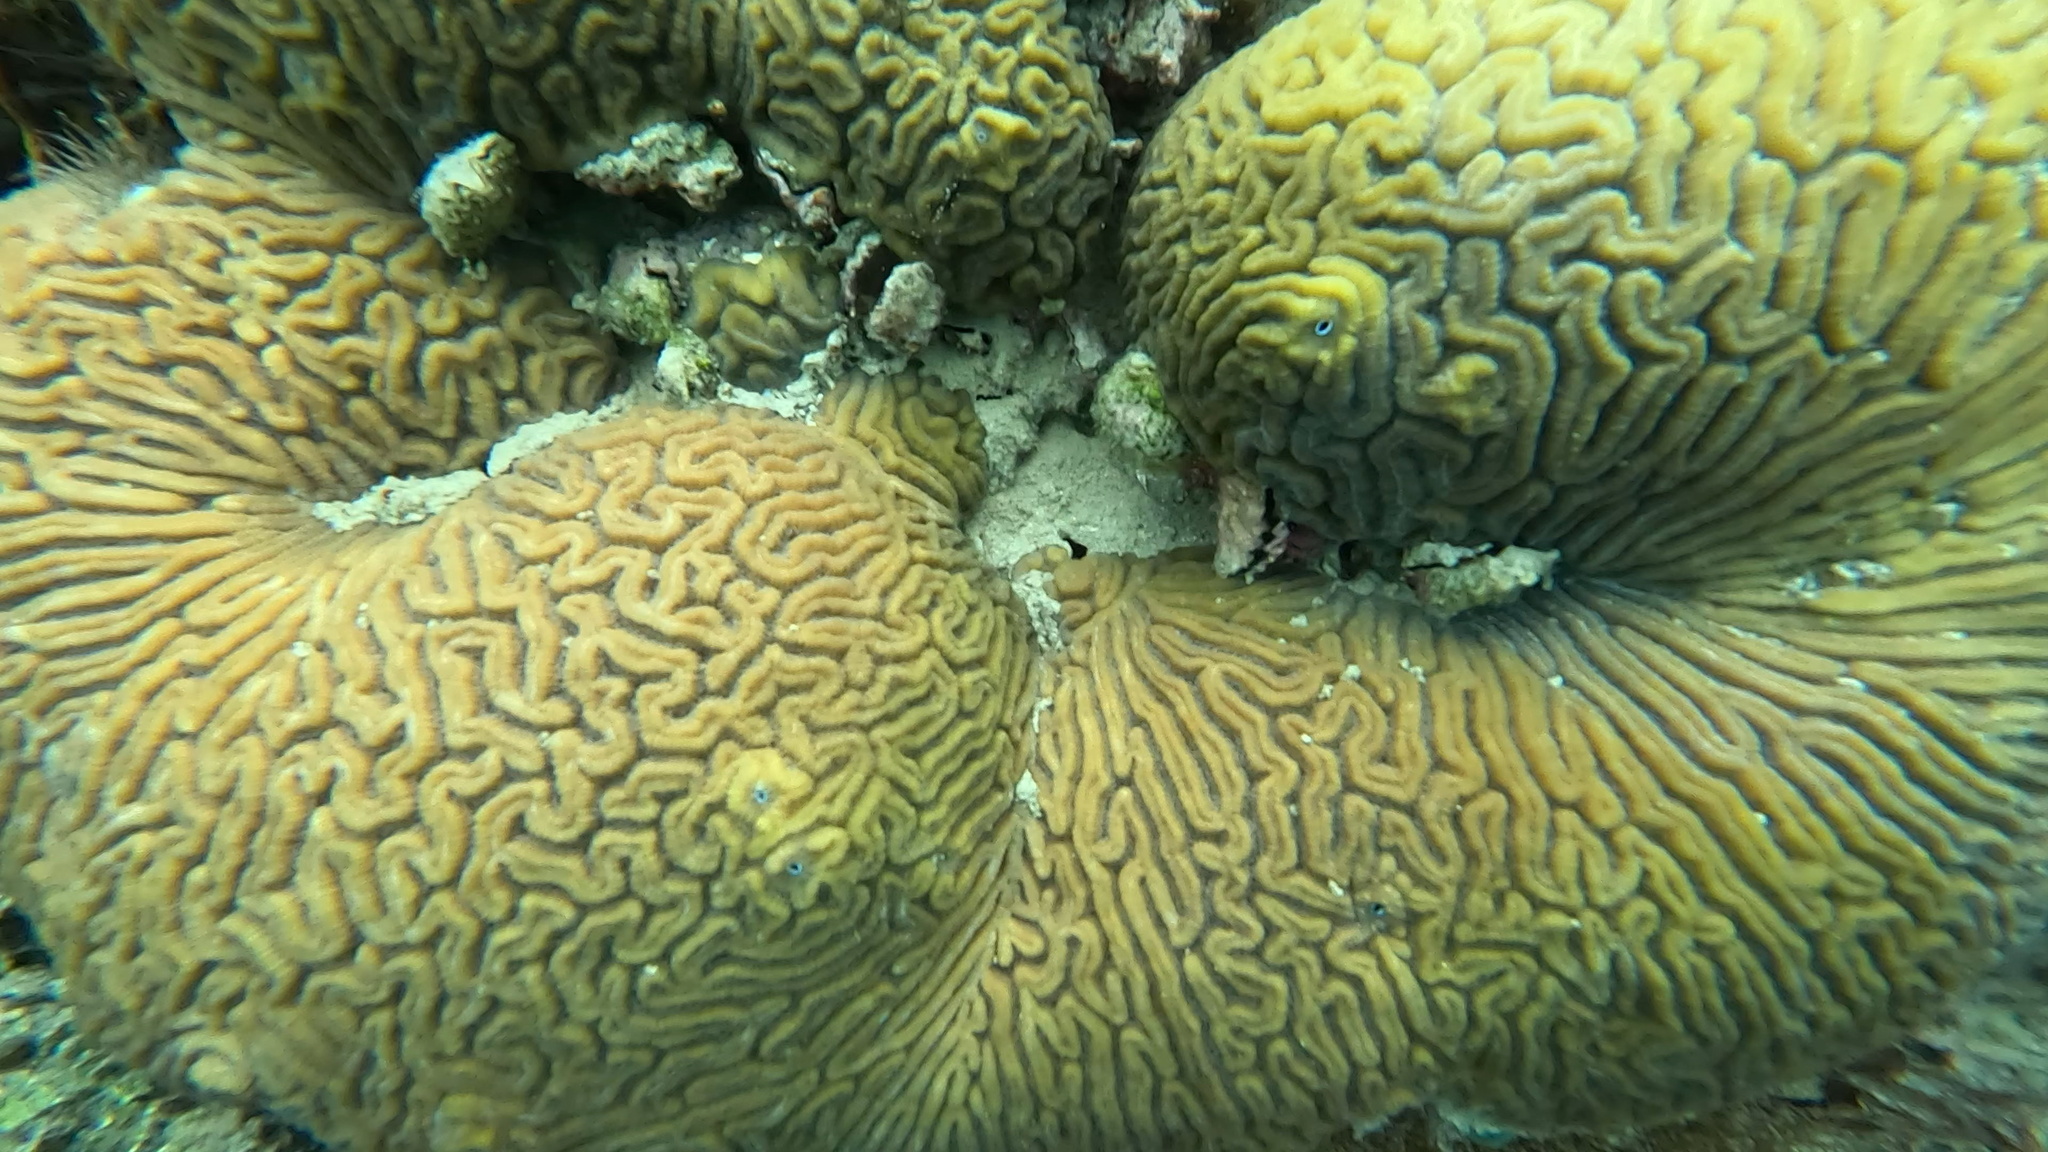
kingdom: Animalia
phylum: Cnidaria
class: Anthozoa
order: Scleractinia
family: Faviidae
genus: Diploria
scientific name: Diploria labyrinthiformis
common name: Grooved brain coral
